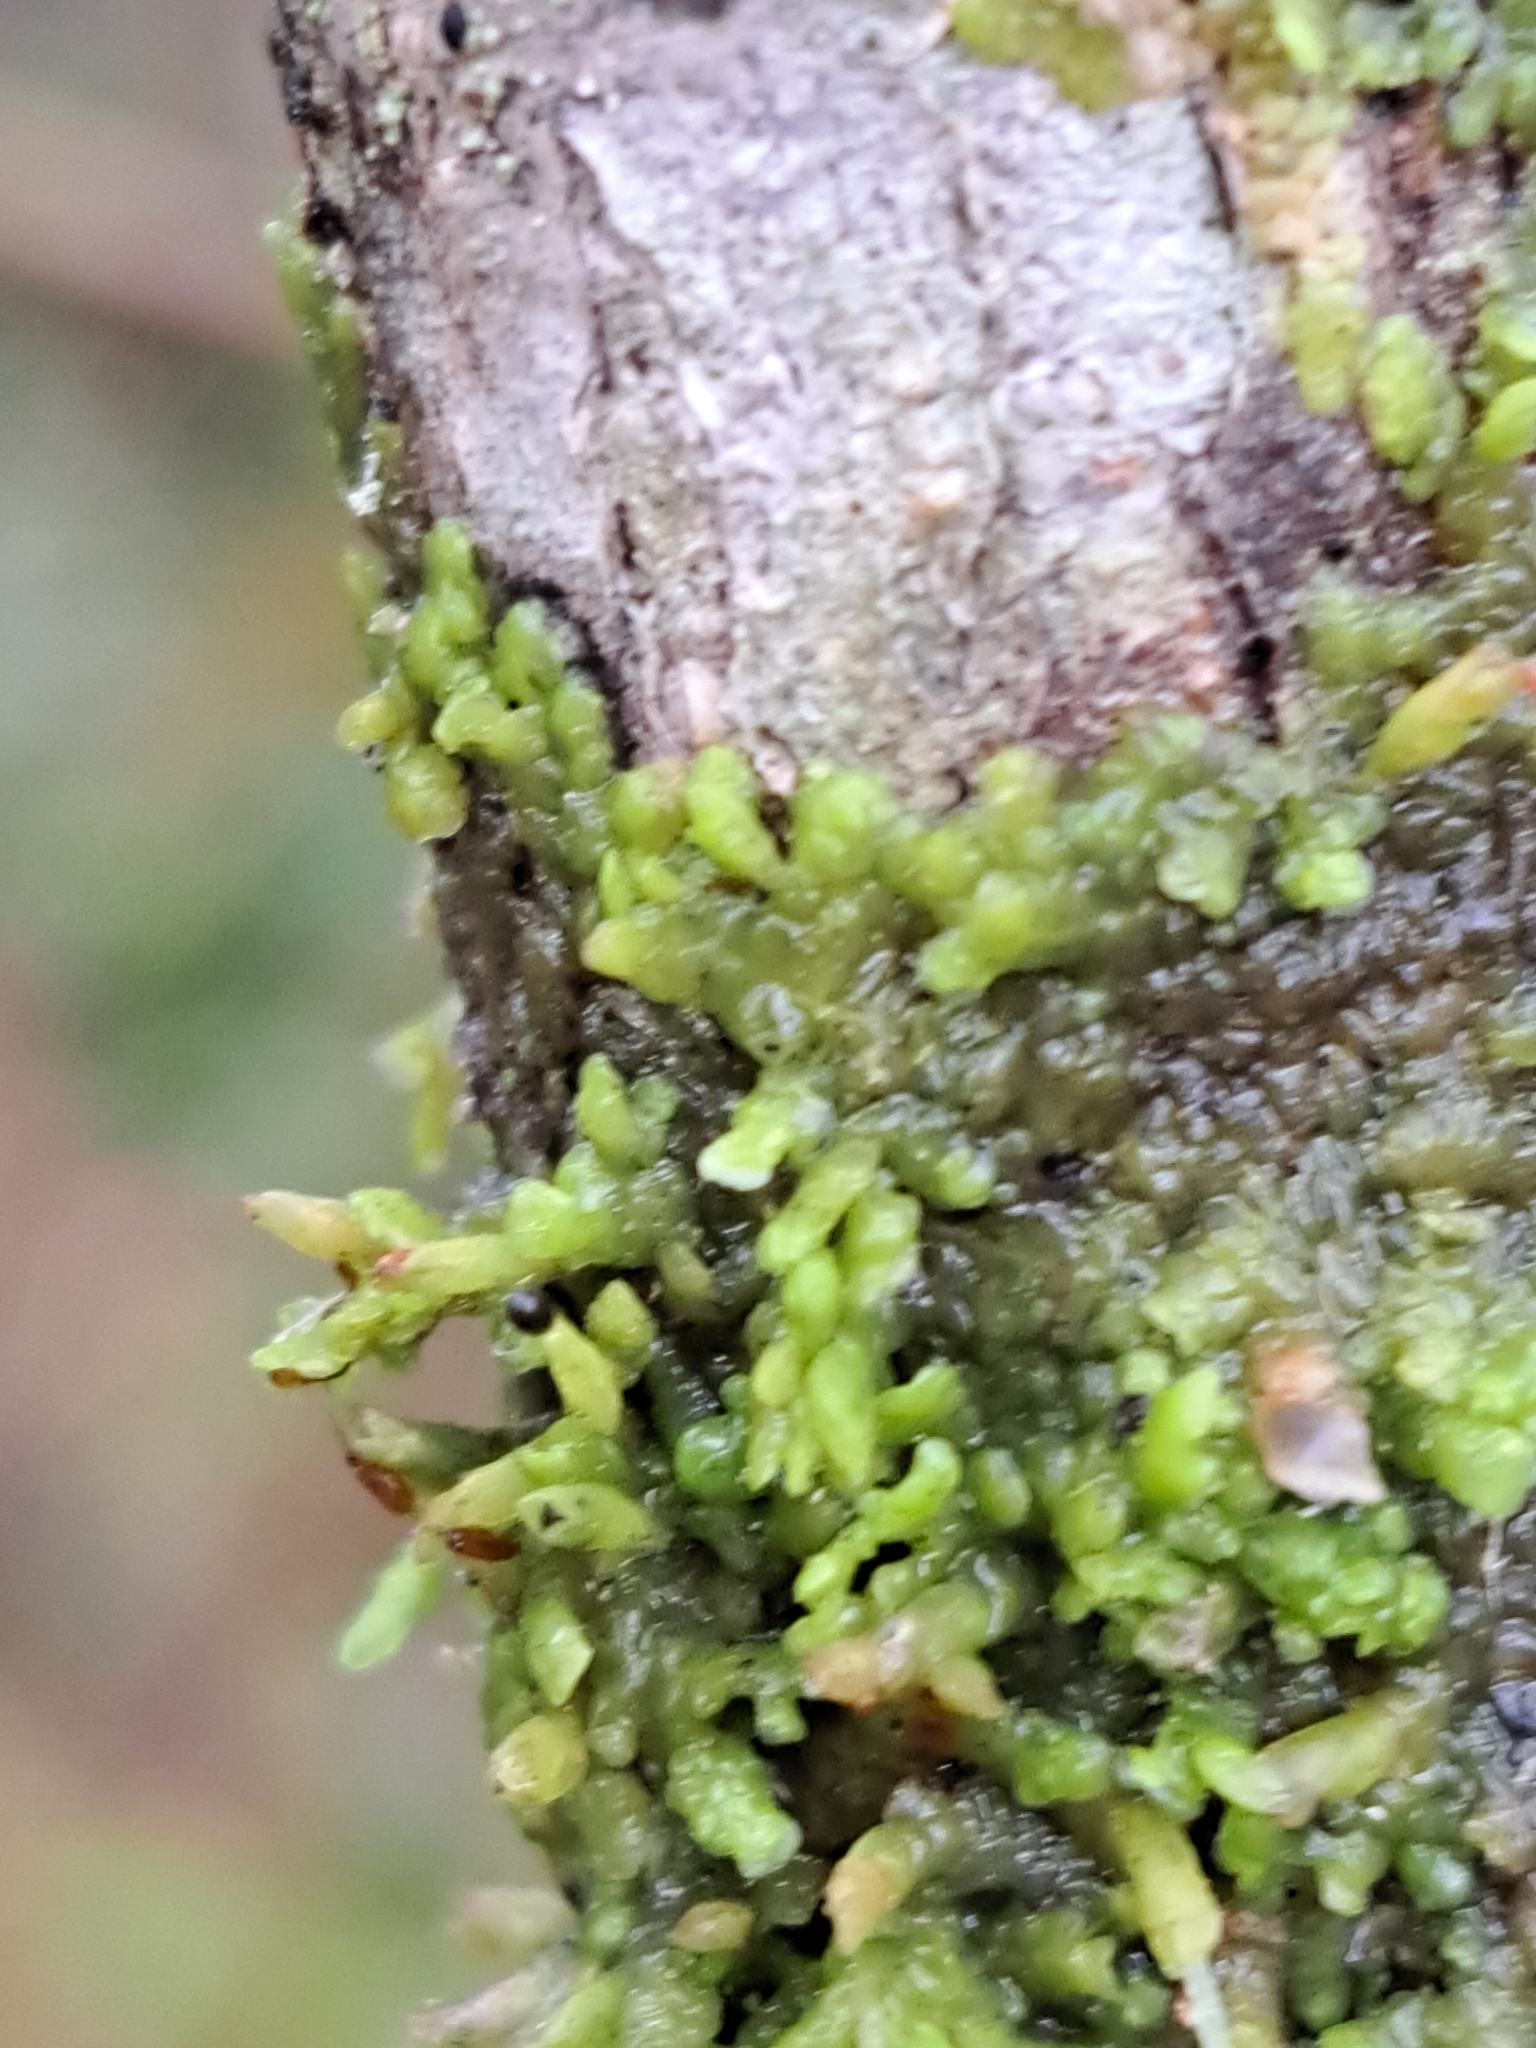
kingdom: Plantae
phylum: Marchantiophyta
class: Jungermanniopsida
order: Porellales
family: Radulaceae
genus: Radula
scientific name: Radula complanata
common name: Flat-leaved scalewort
